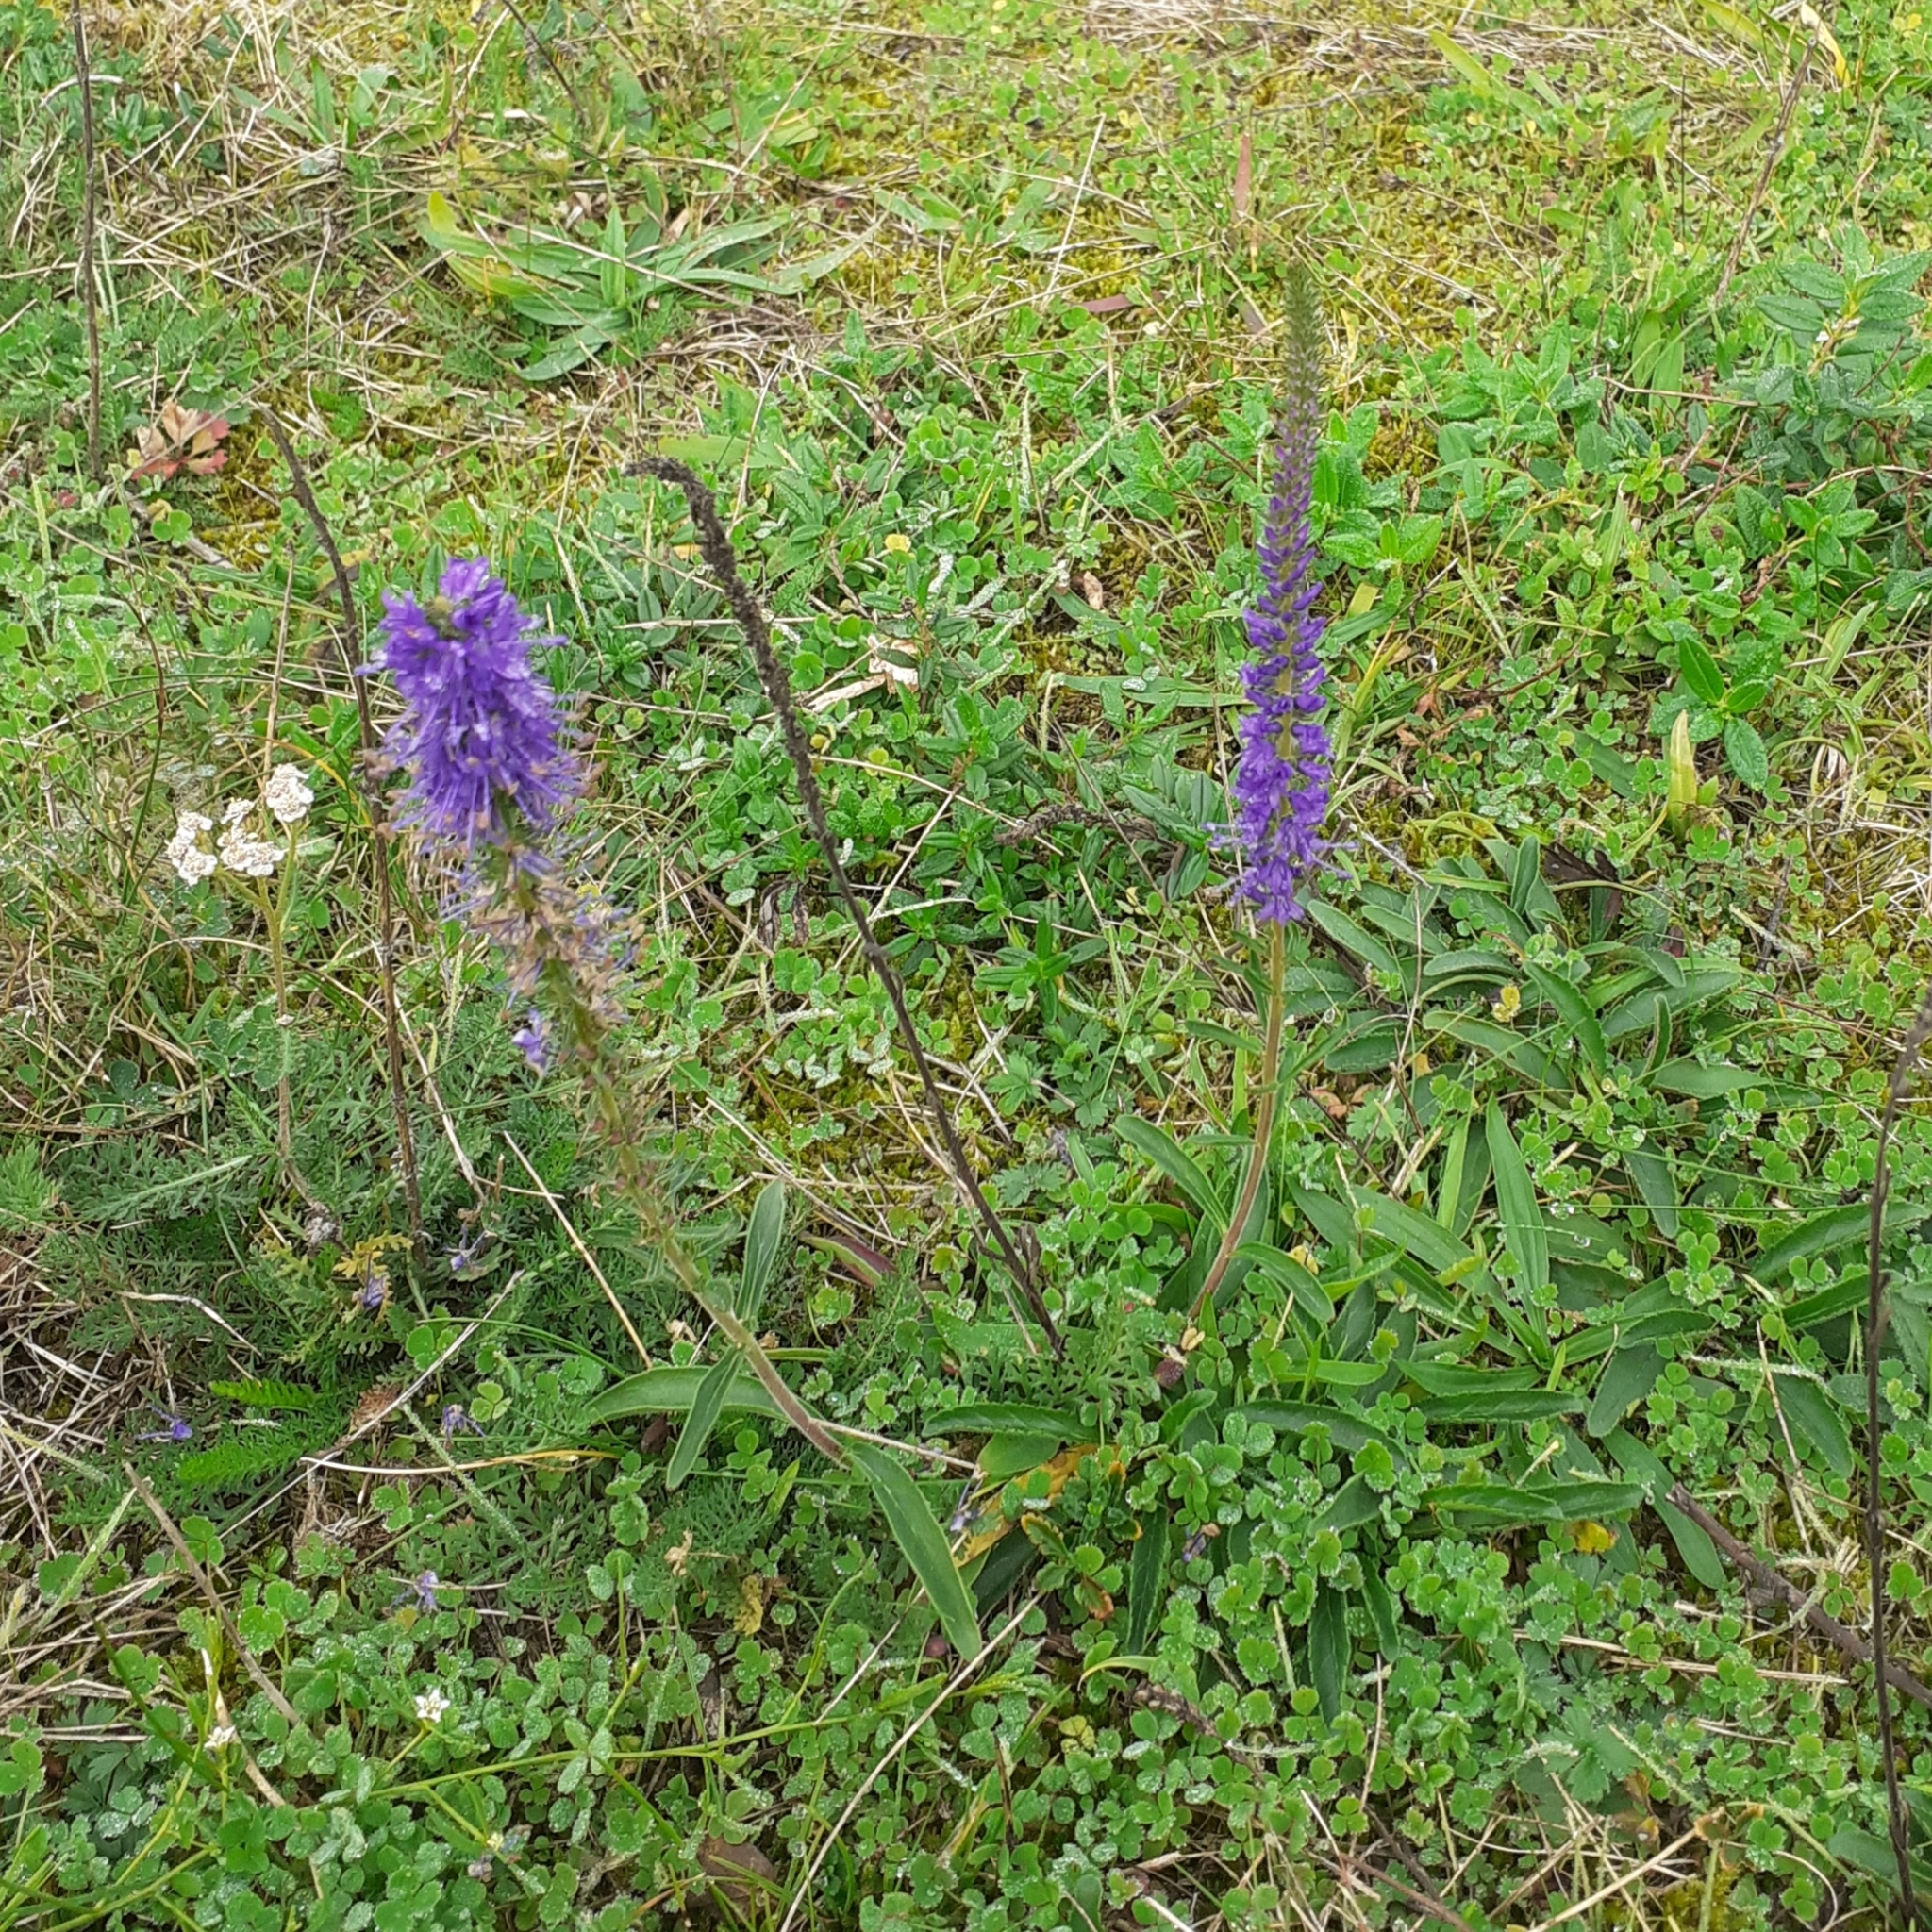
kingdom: Plantae
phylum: Tracheophyta
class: Magnoliopsida
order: Lamiales
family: Plantaginaceae
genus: Veronica
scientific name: Veronica spicata
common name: Spiked speedwell
